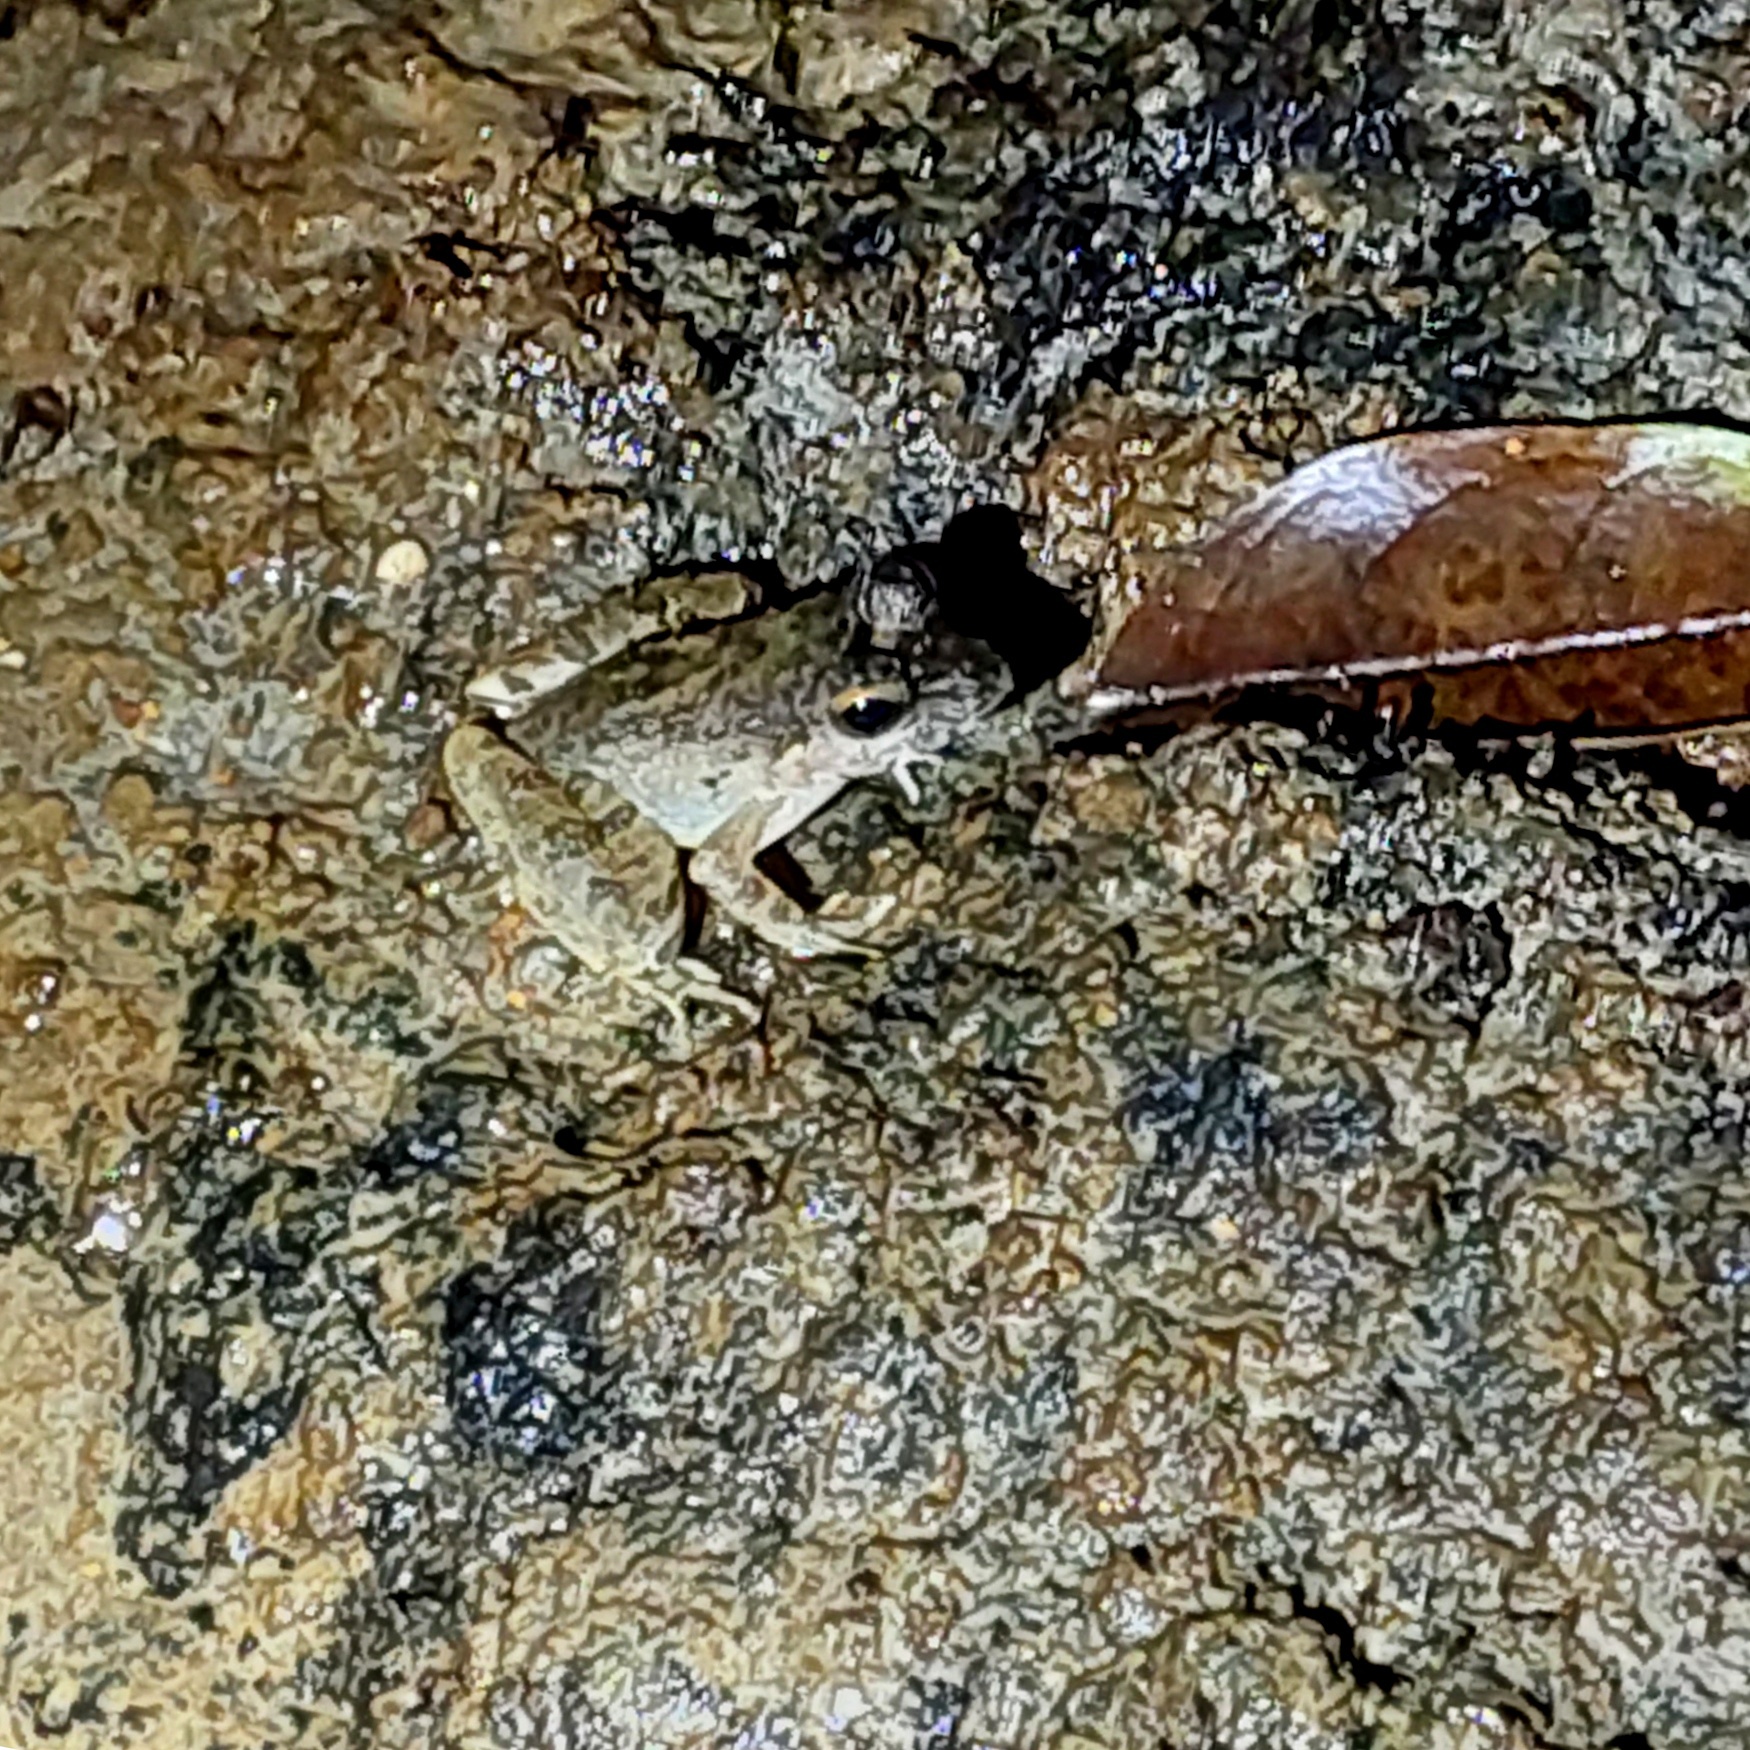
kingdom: Animalia
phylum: Chordata
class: Amphibia
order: Anura
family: Ranidae
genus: Pulchrana
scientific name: Pulchrana laterimaculata
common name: Side-spotted swamp frog
